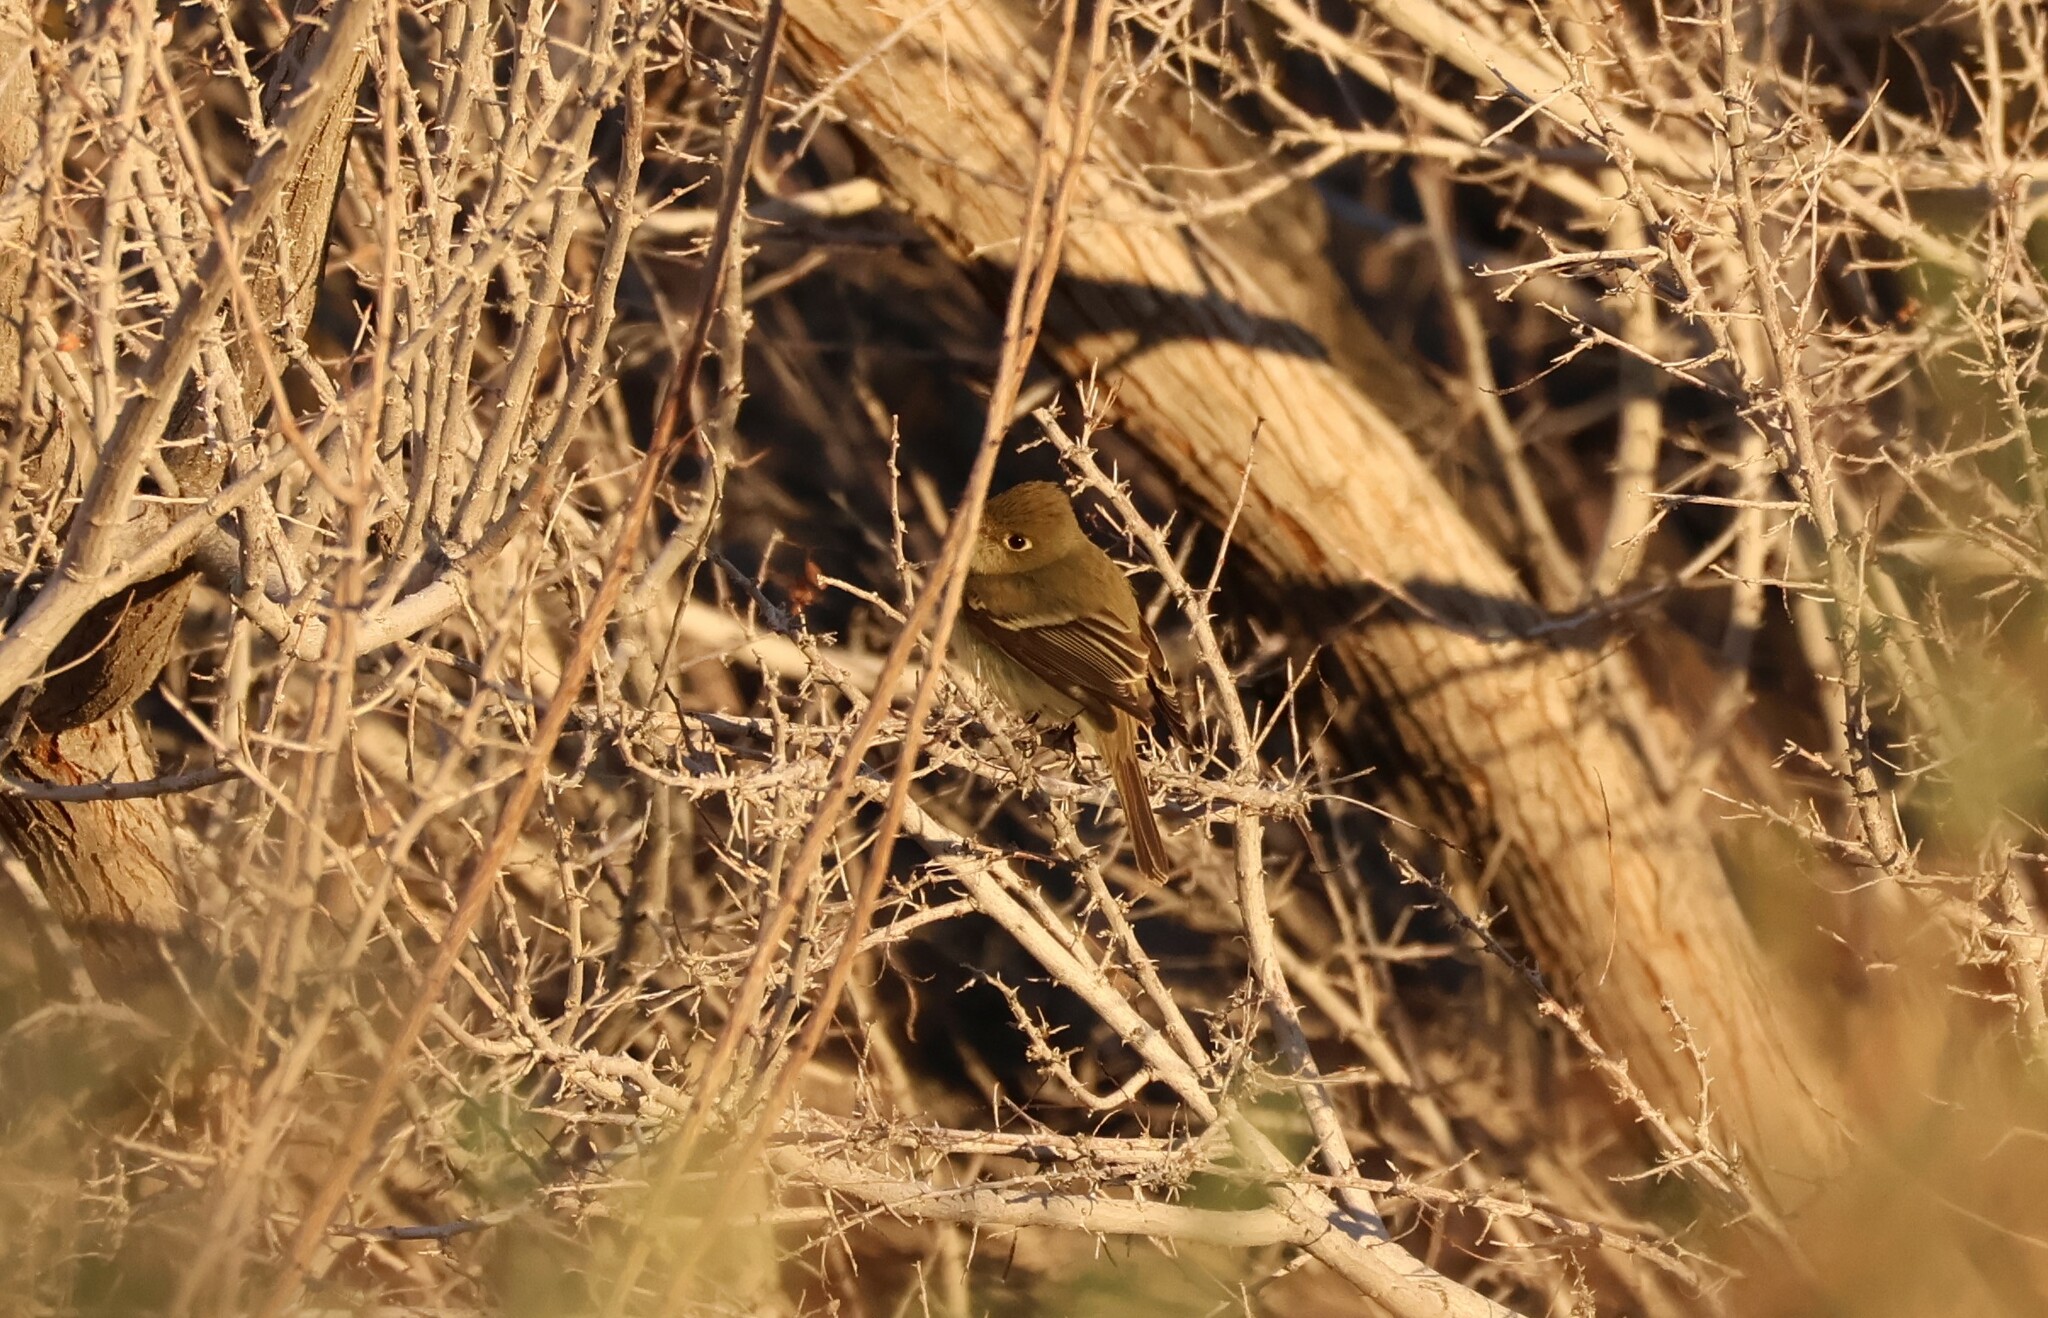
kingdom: Animalia
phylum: Chordata
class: Aves
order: Passeriformes
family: Tyrannidae
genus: Empidonax
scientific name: Empidonax difficilis
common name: Pacific-slope flycatcher
